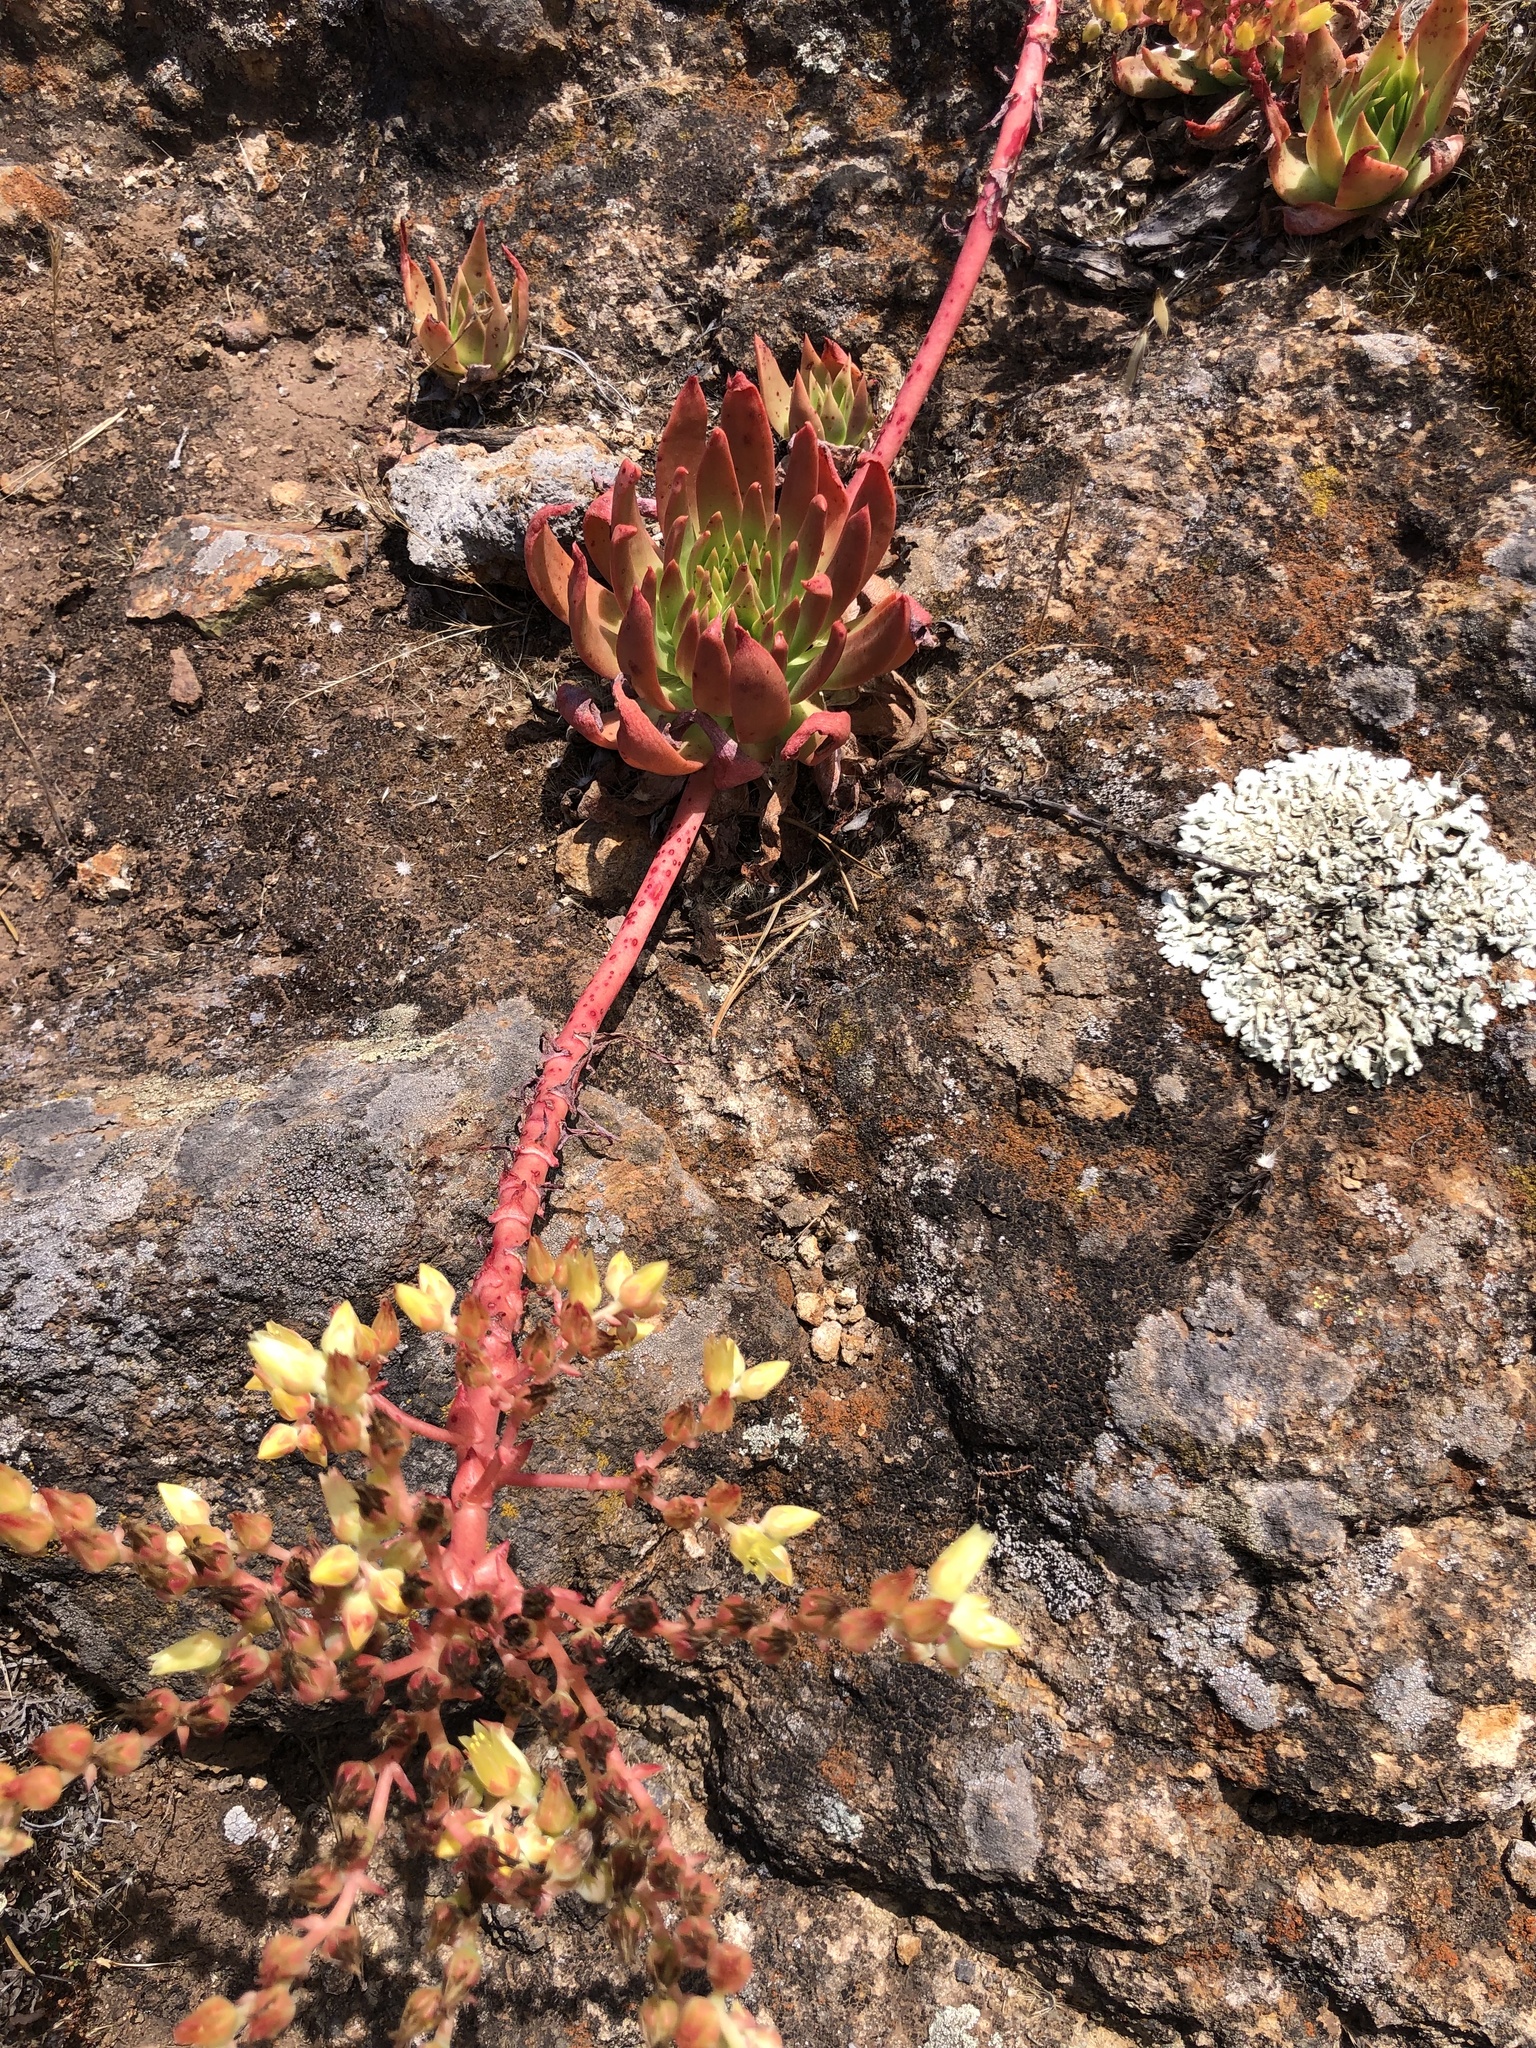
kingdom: Plantae
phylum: Tracheophyta
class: Magnoliopsida
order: Saxifragales
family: Crassulaceae
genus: Dudleya
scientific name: Dudleya candelabrum
